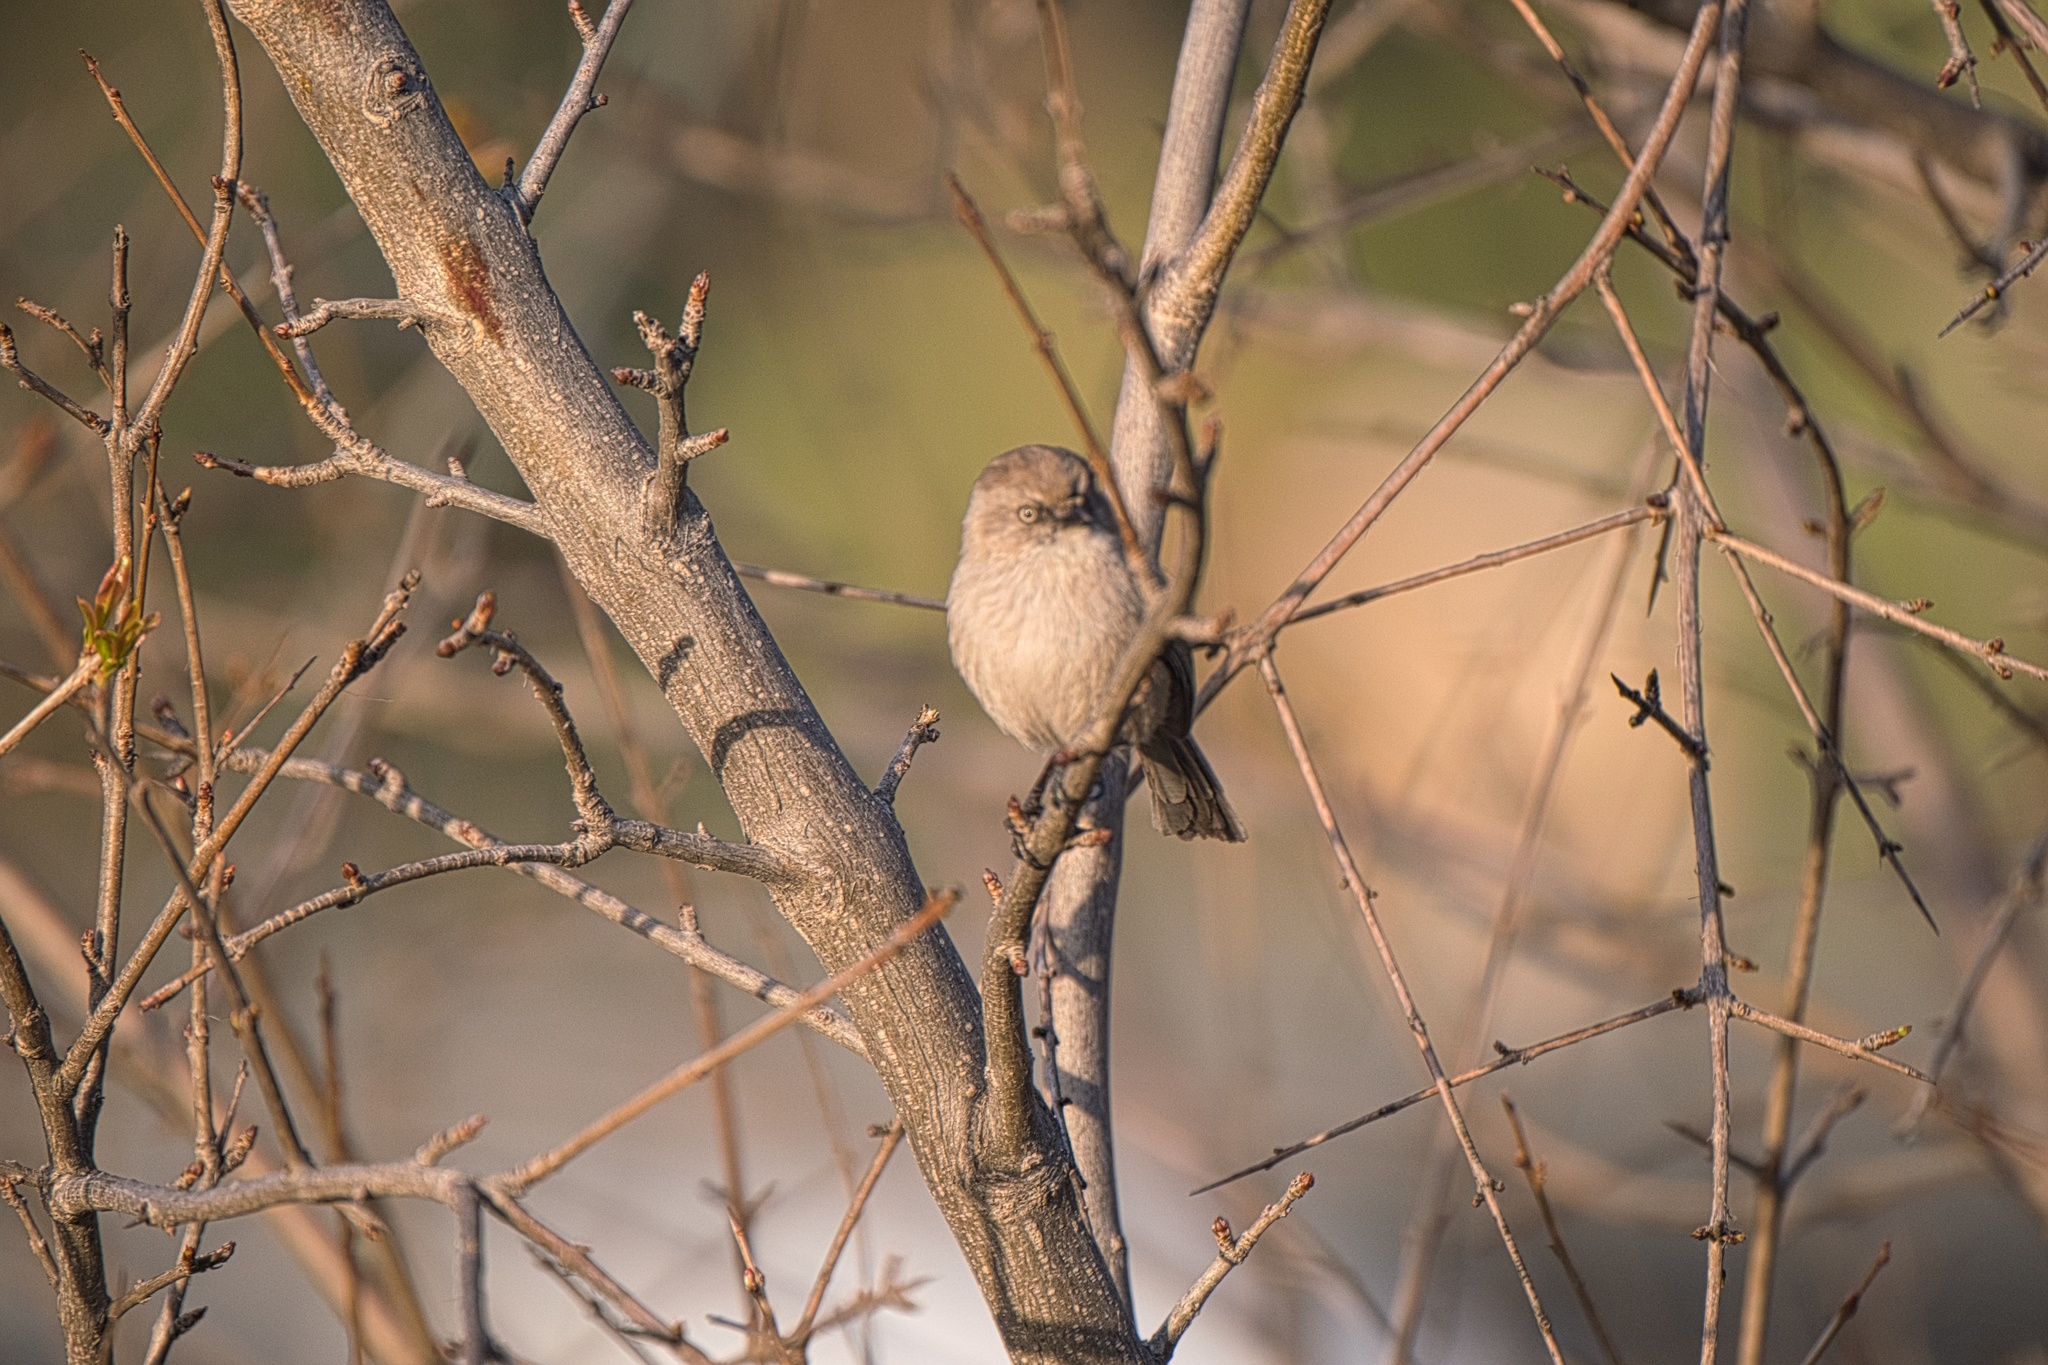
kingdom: Animalia
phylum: Chordata
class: Aves
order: Passeriformes
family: Aegithalidae
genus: Psaltriparus
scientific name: Psaltriparus minimus
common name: American bushtit
